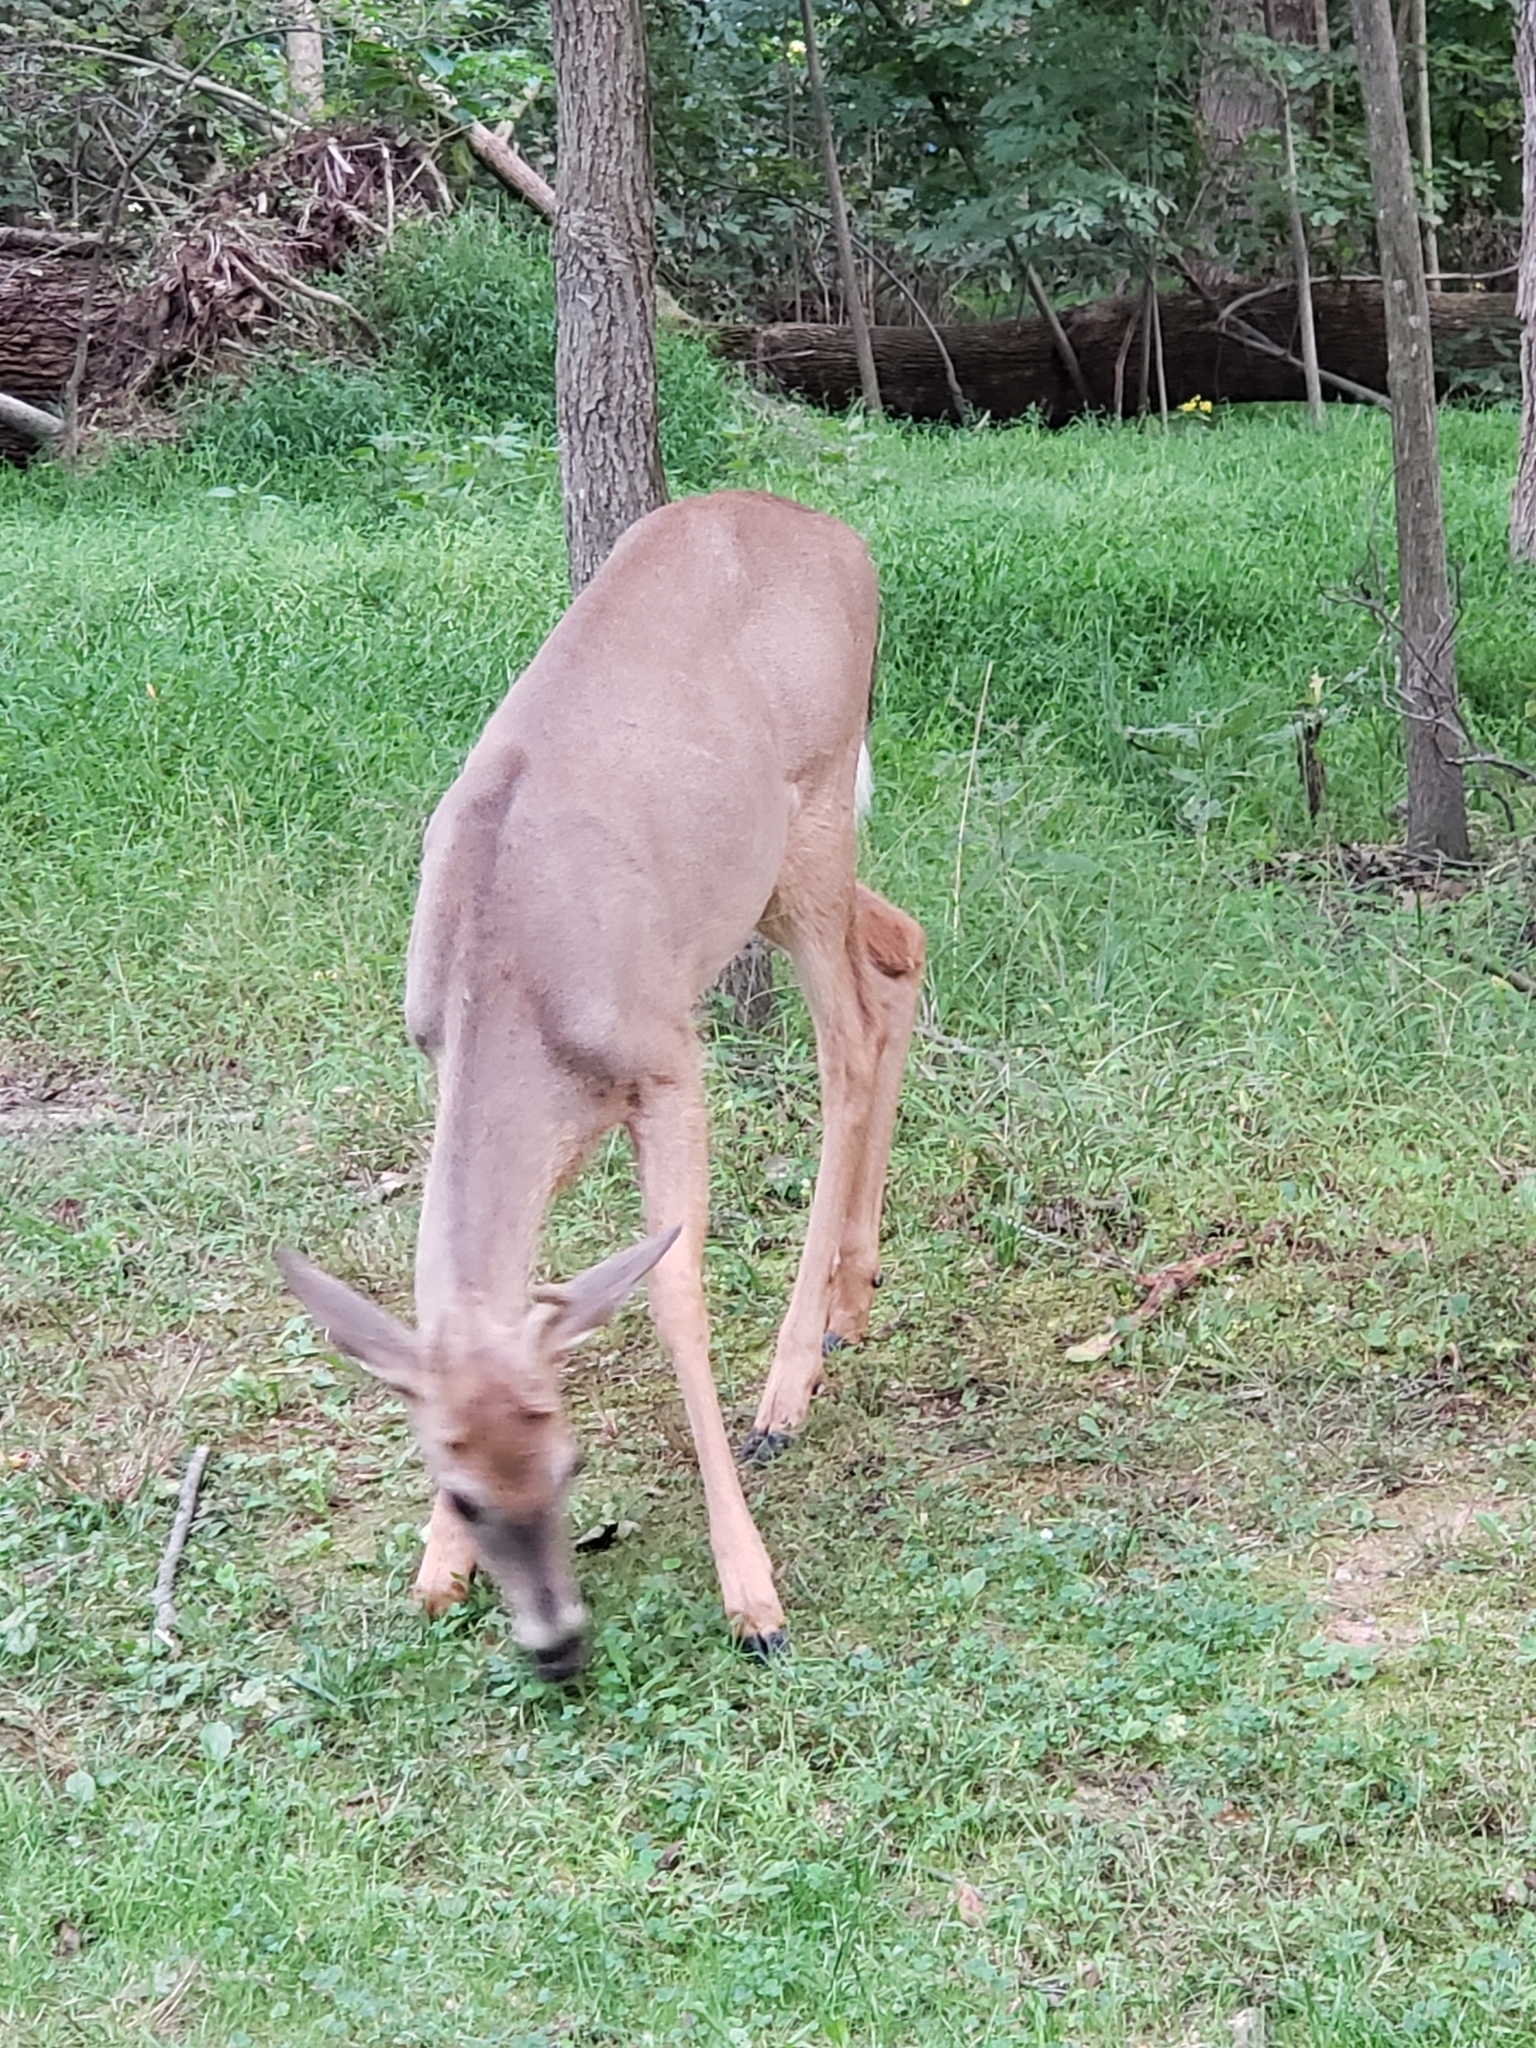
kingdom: Animalia
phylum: Chordata
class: Mammalia
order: Artiodactyla
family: Cervidae
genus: Odocoileus
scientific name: Odocoileus virginianus
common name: White-tailed deer
